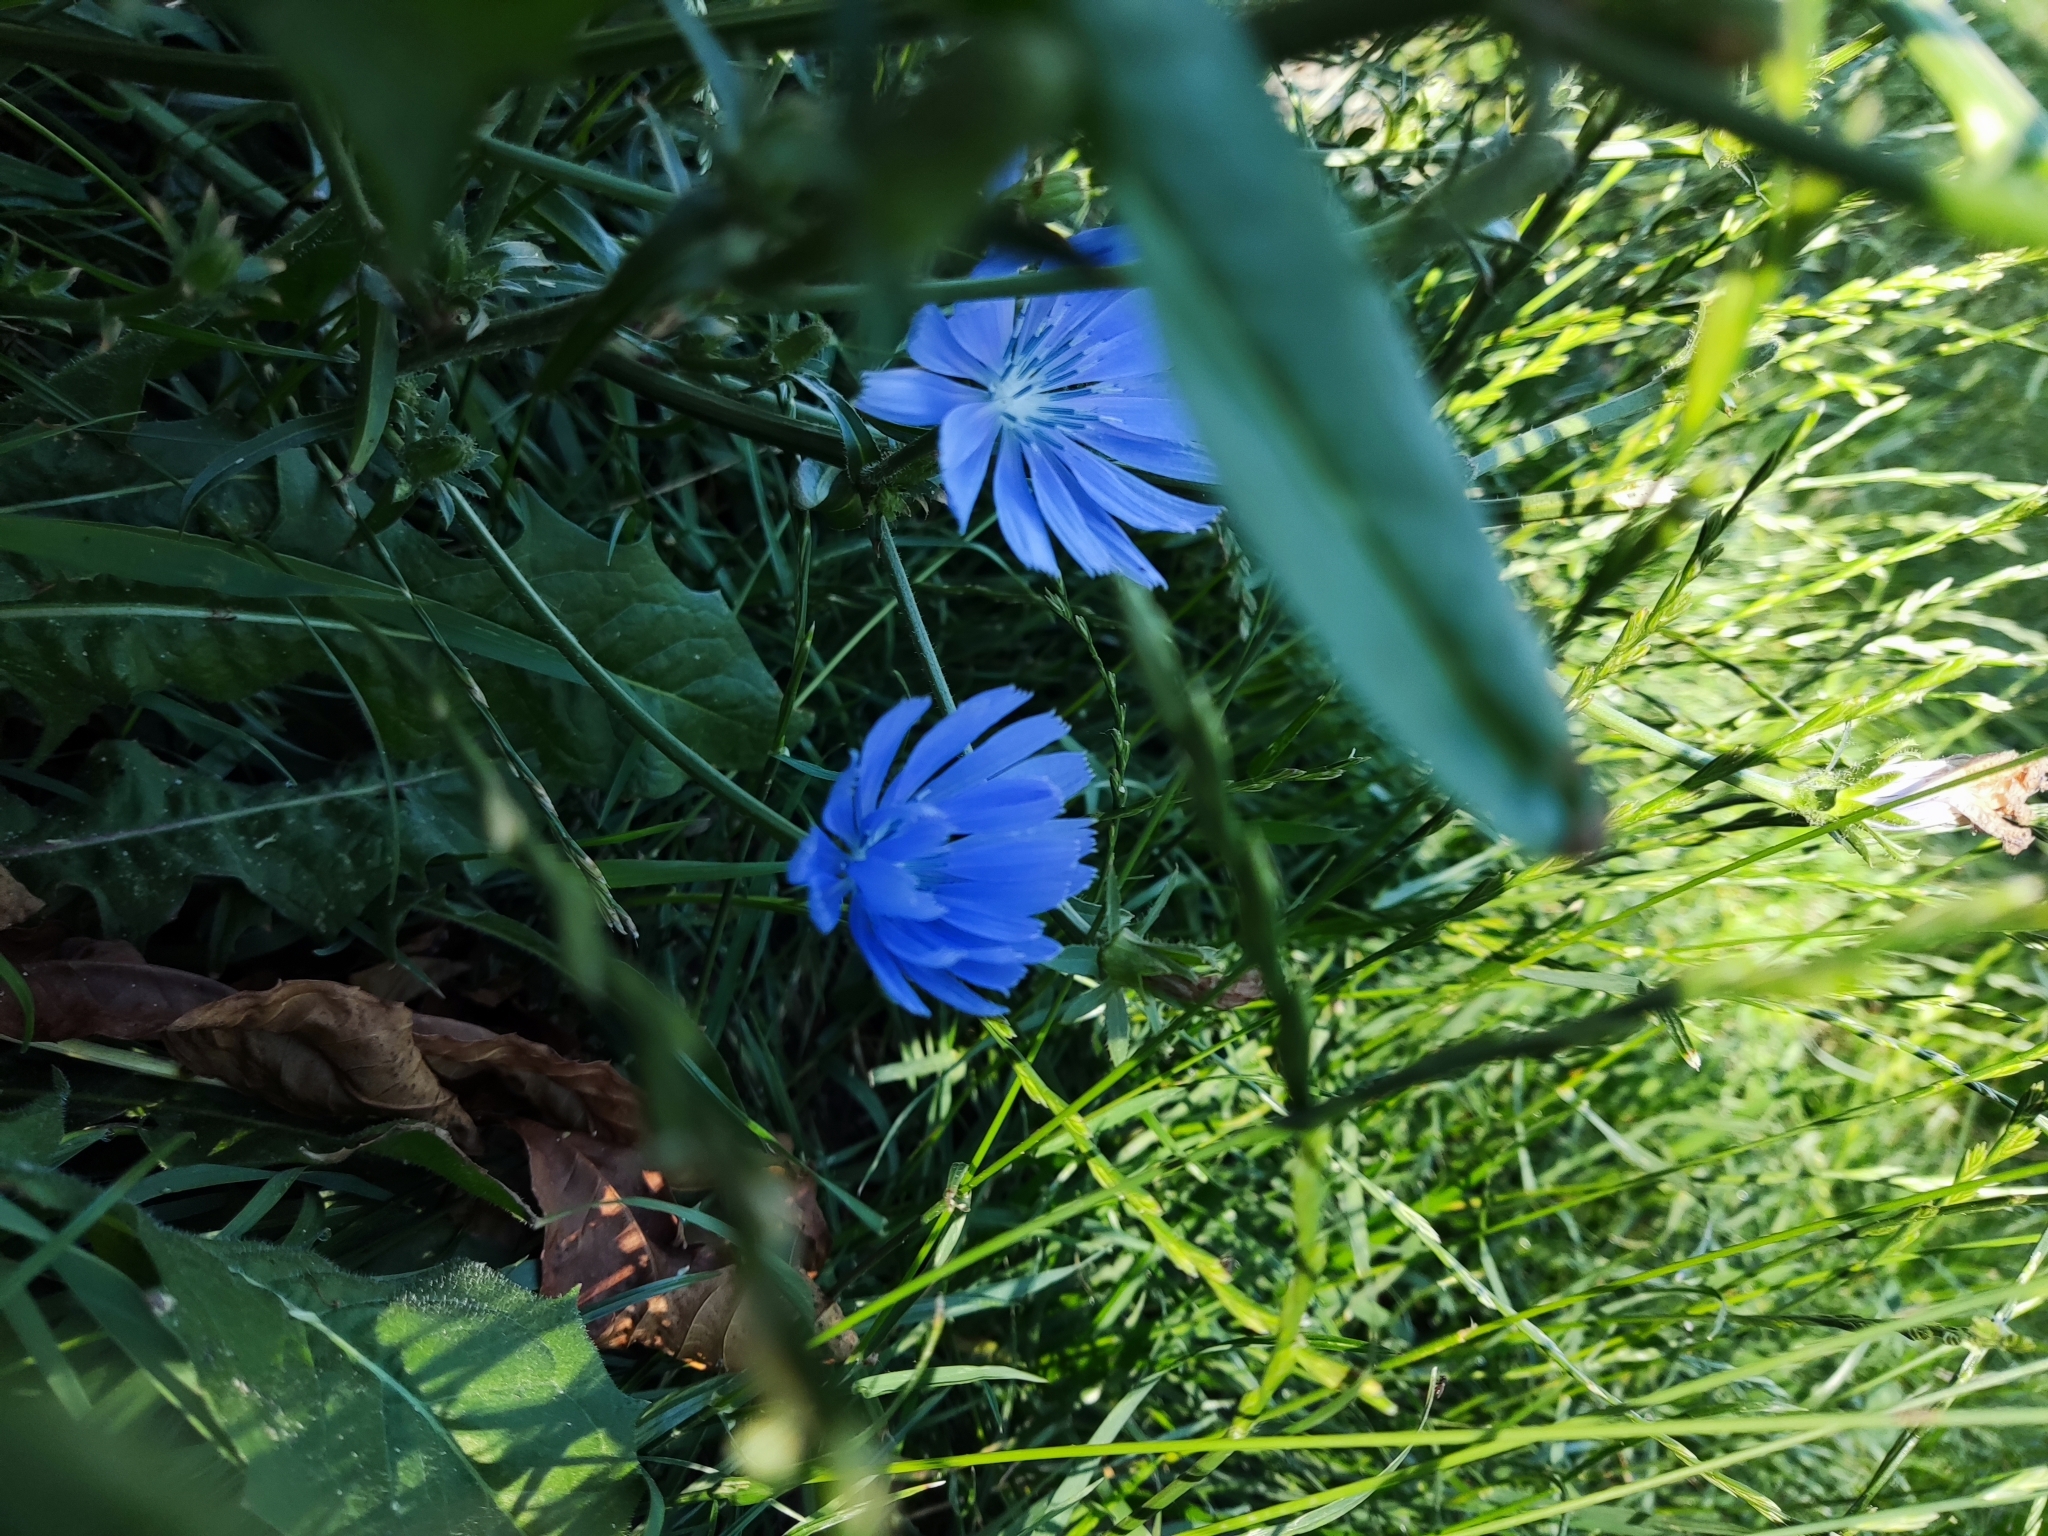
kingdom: Plantae
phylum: Tracheophyta
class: Magnoliopsida
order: Asterales
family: Asteraceae
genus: Cichorium
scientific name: Cichorium intybus
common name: Chicory
